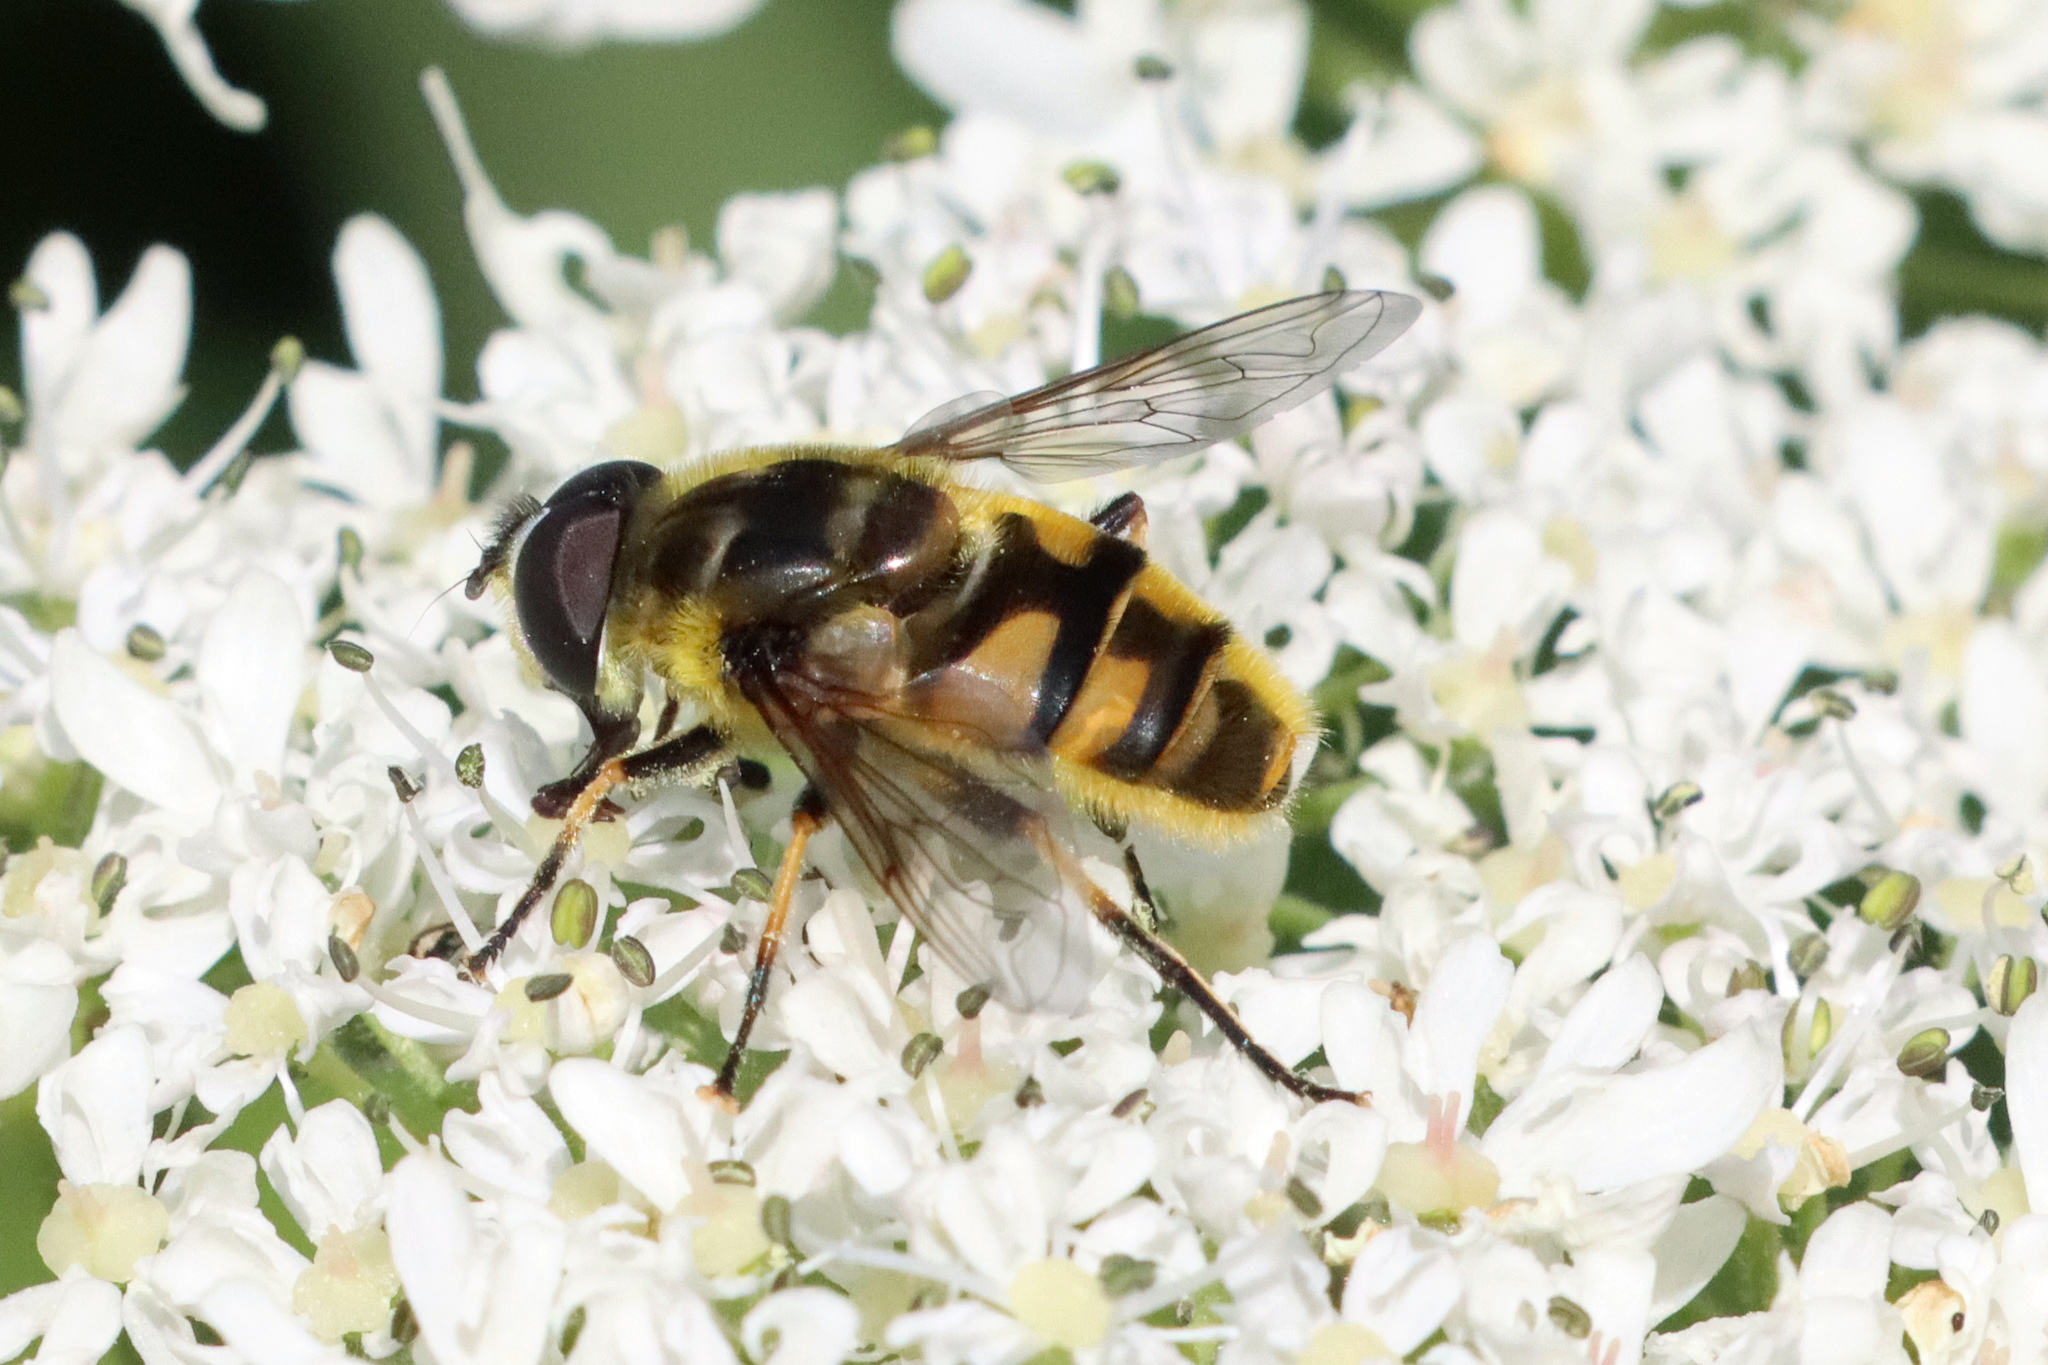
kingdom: Animalia
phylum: Arthropoda
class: Insecta
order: Diptera
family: Syrphidae
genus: Myathropa
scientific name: Myathropa florea
